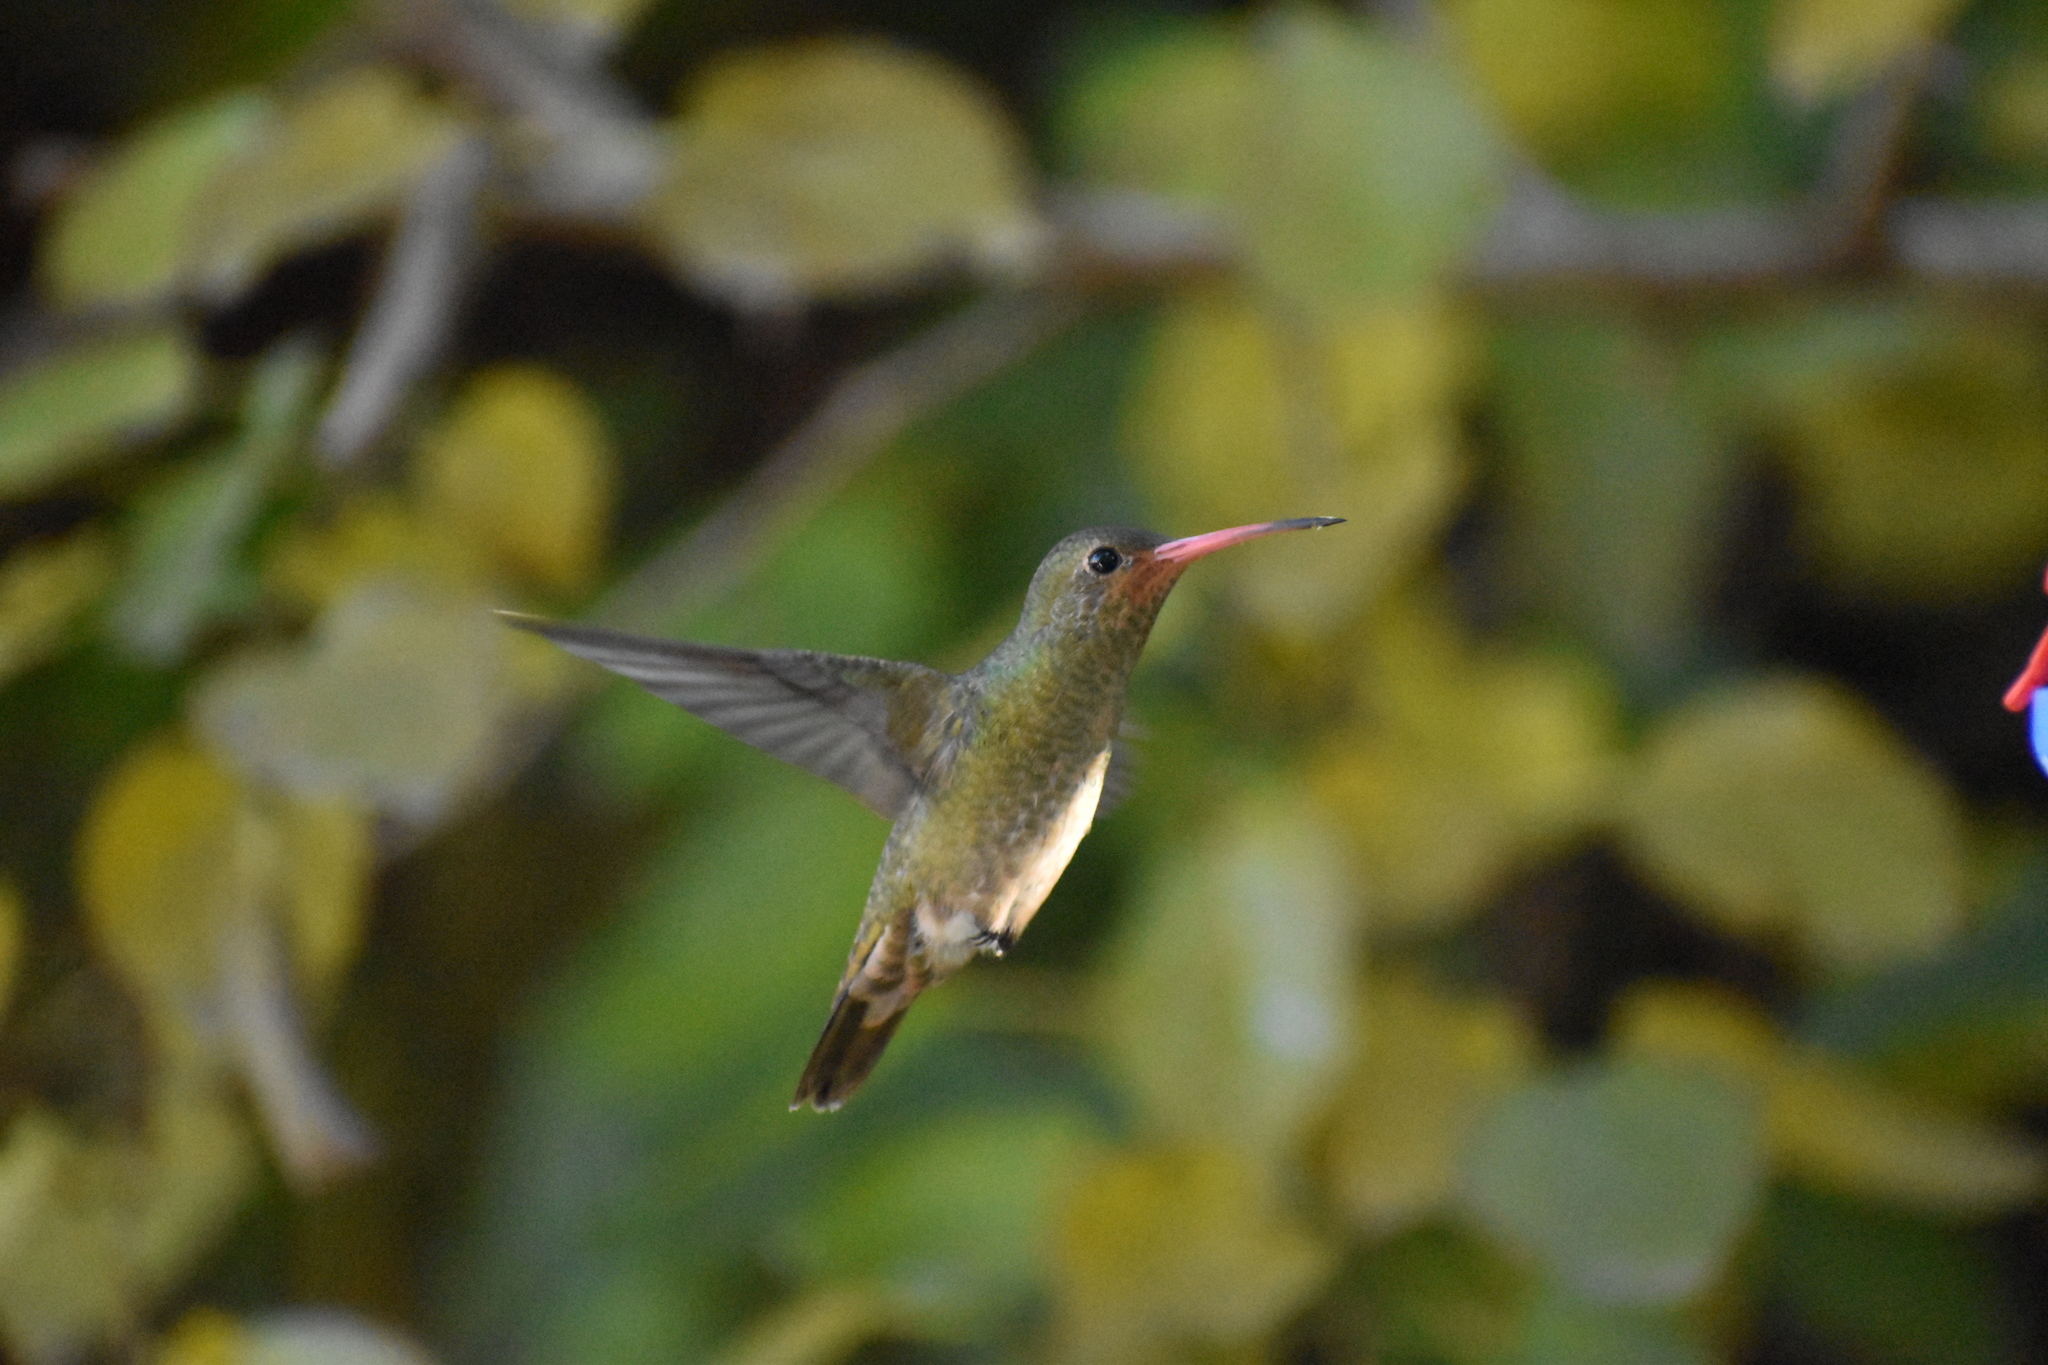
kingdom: Animalia
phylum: Chordata
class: Aves
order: Apodiformes
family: Trochilidae
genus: Hylocharis
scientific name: Hylocharis chrysura
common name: Gilded sapphire
